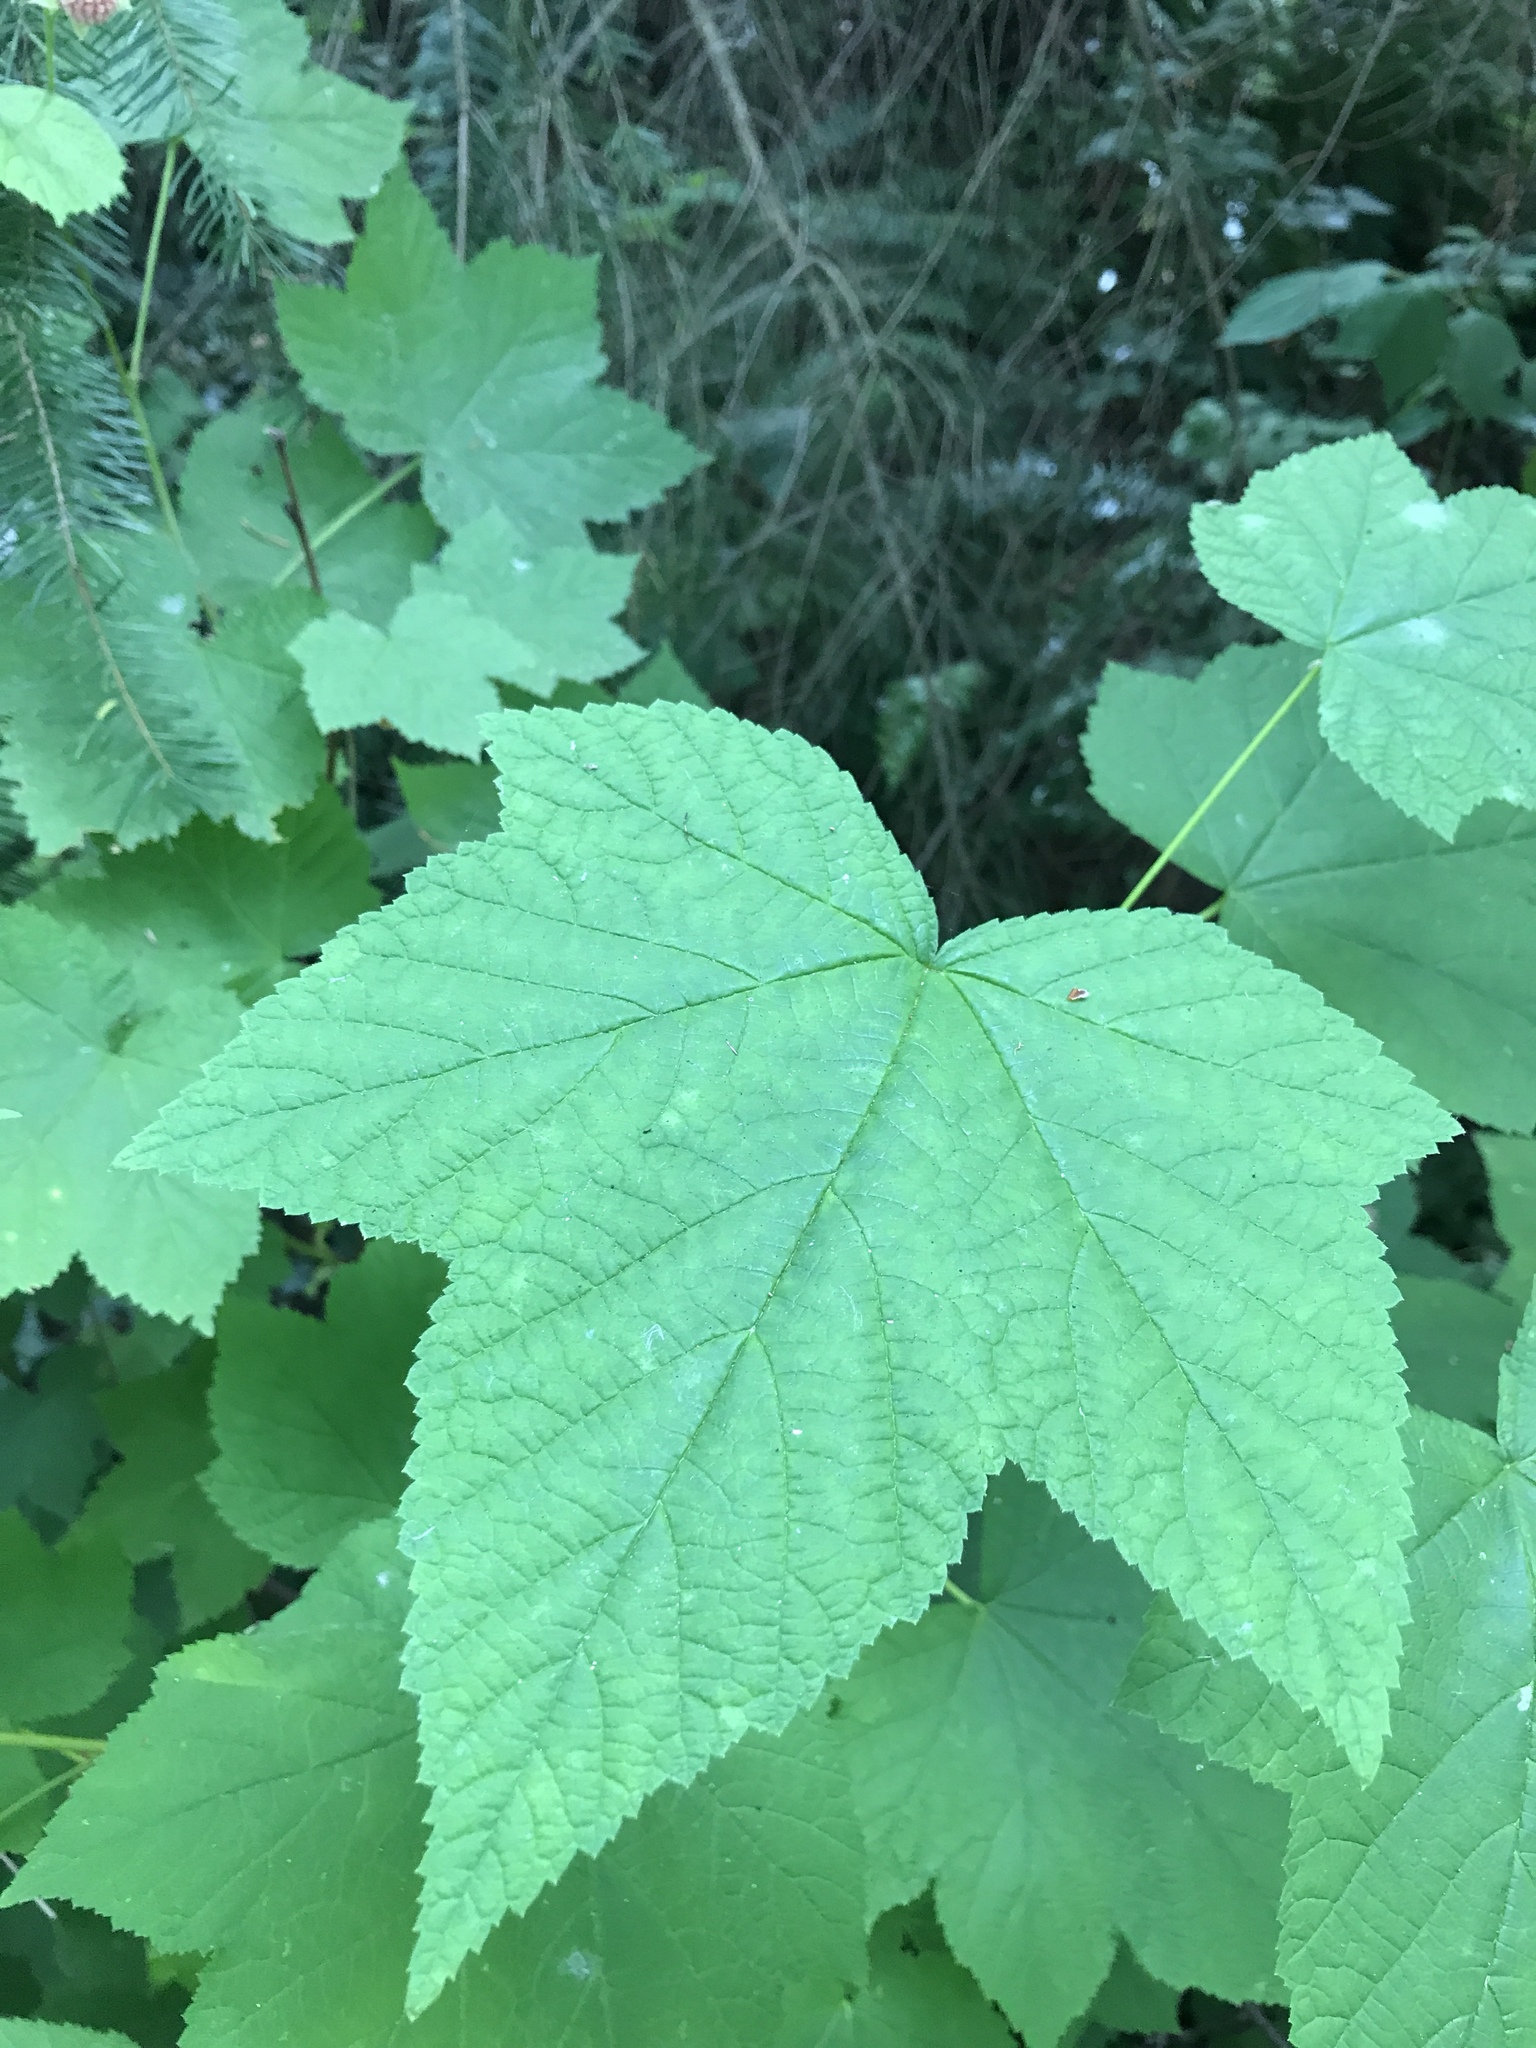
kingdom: Plantae
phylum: Tracheophyta
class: Magnoliopsida
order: Rosales
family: Rosaceae
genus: Rubus
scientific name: Rubus parviflorus
